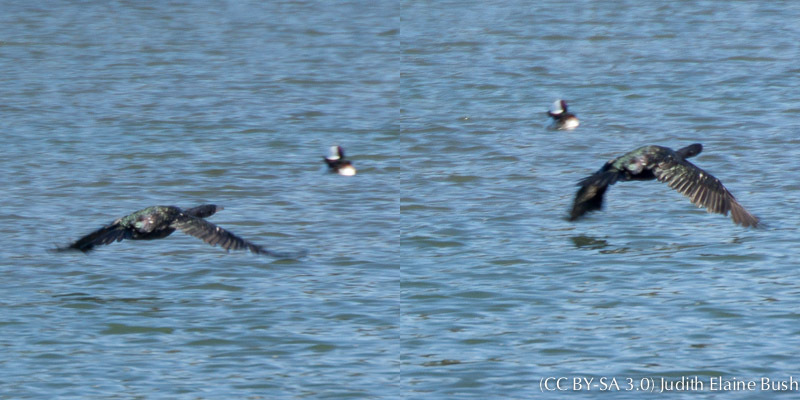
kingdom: Animalia
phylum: Chordata
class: Aves
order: Suliformes
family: Phalacrocoracidae
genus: Phalacrocorax
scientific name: Phalacrocorax pelagicus
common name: Pelagic cormorant
